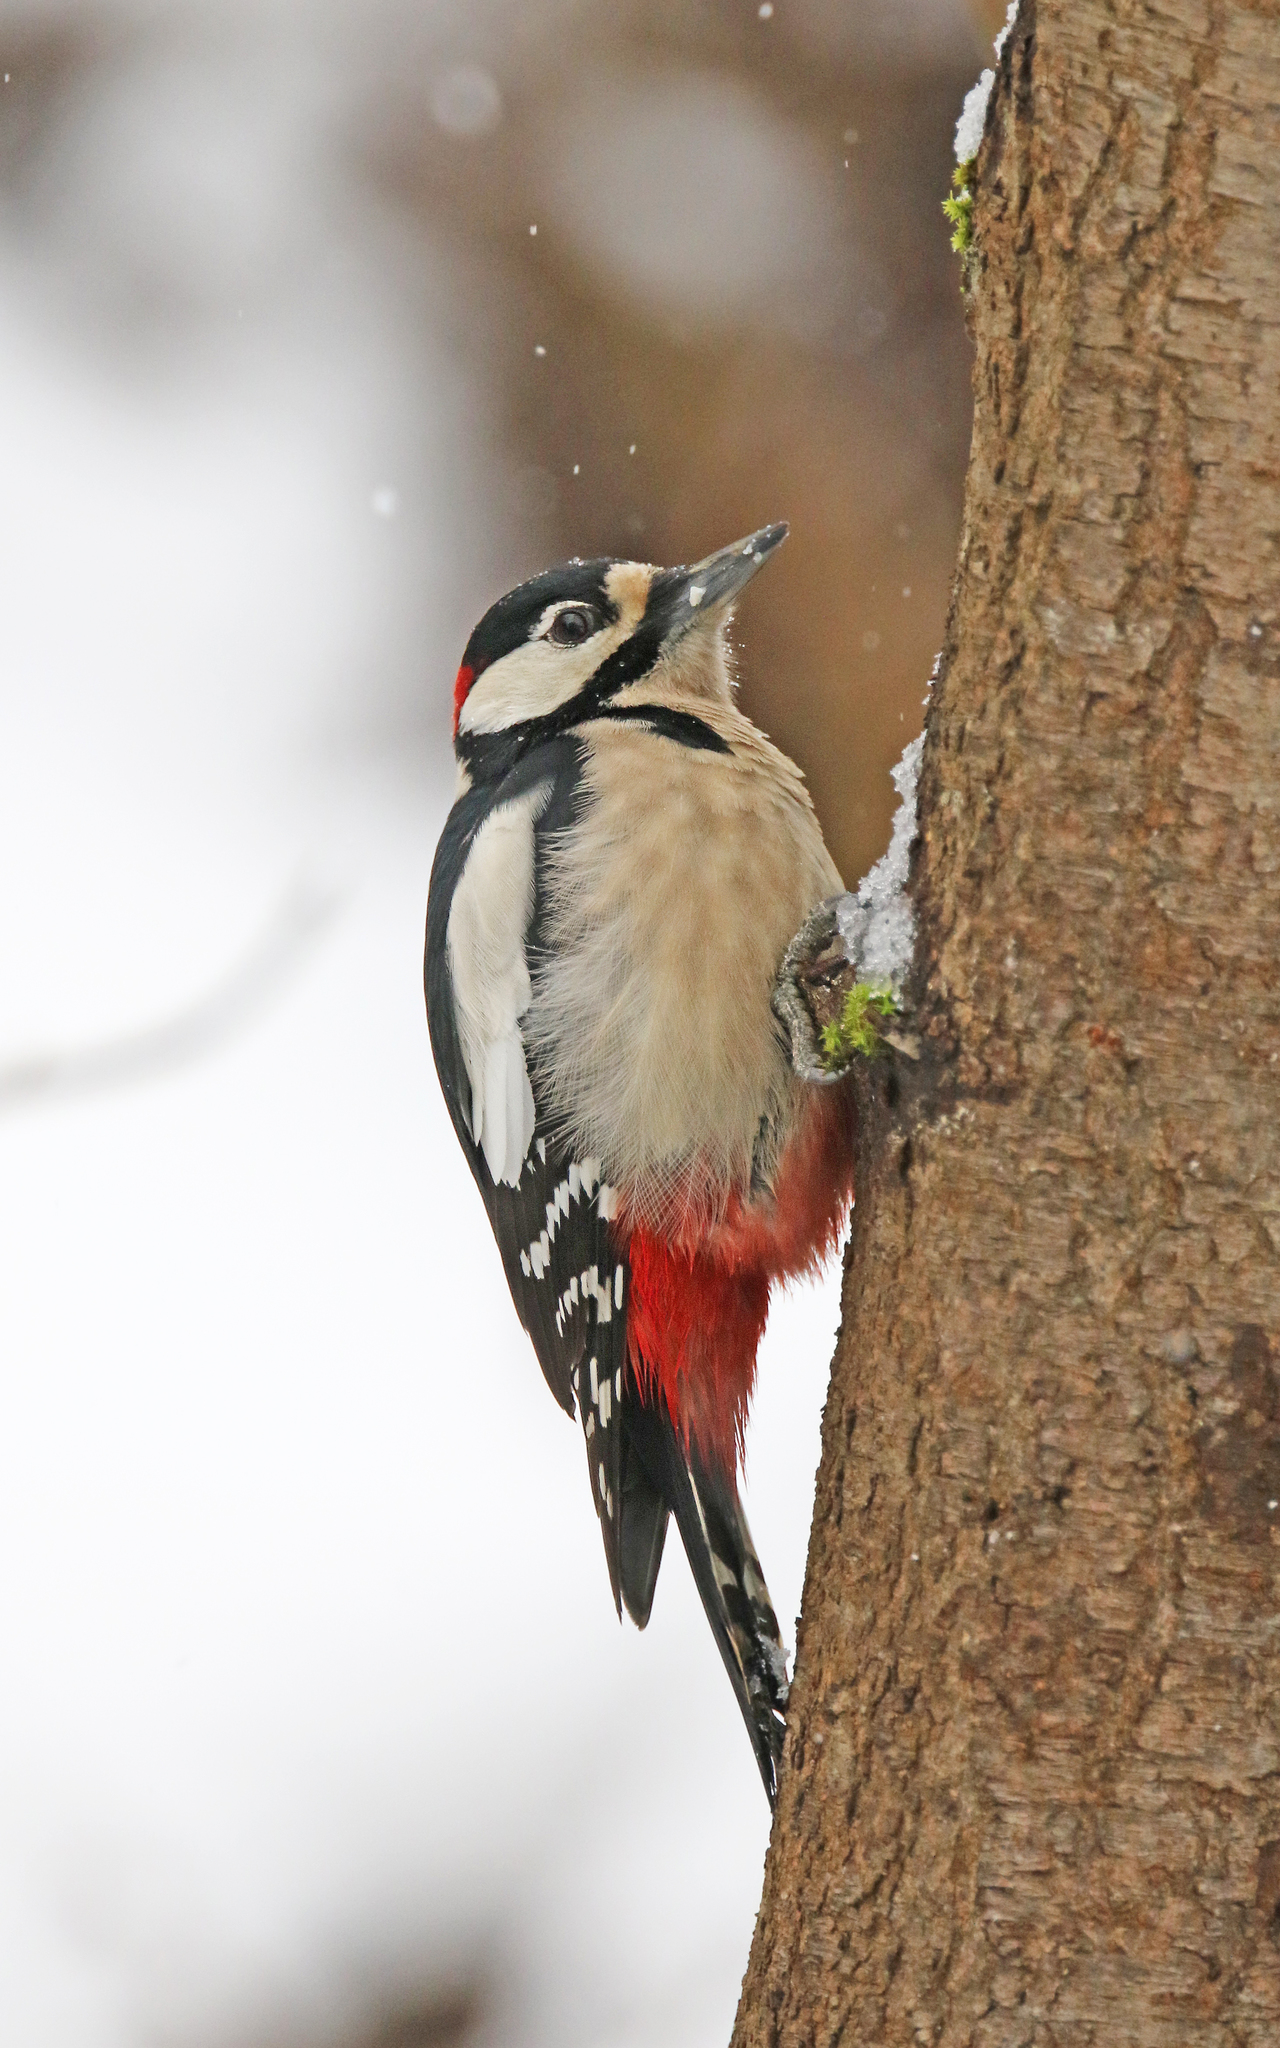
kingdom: Animalia
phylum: Chordata
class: Aves
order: Piciformes
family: Picidae
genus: Dendrocopos
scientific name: Dendrocopos major
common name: Great spotted woodpecker
